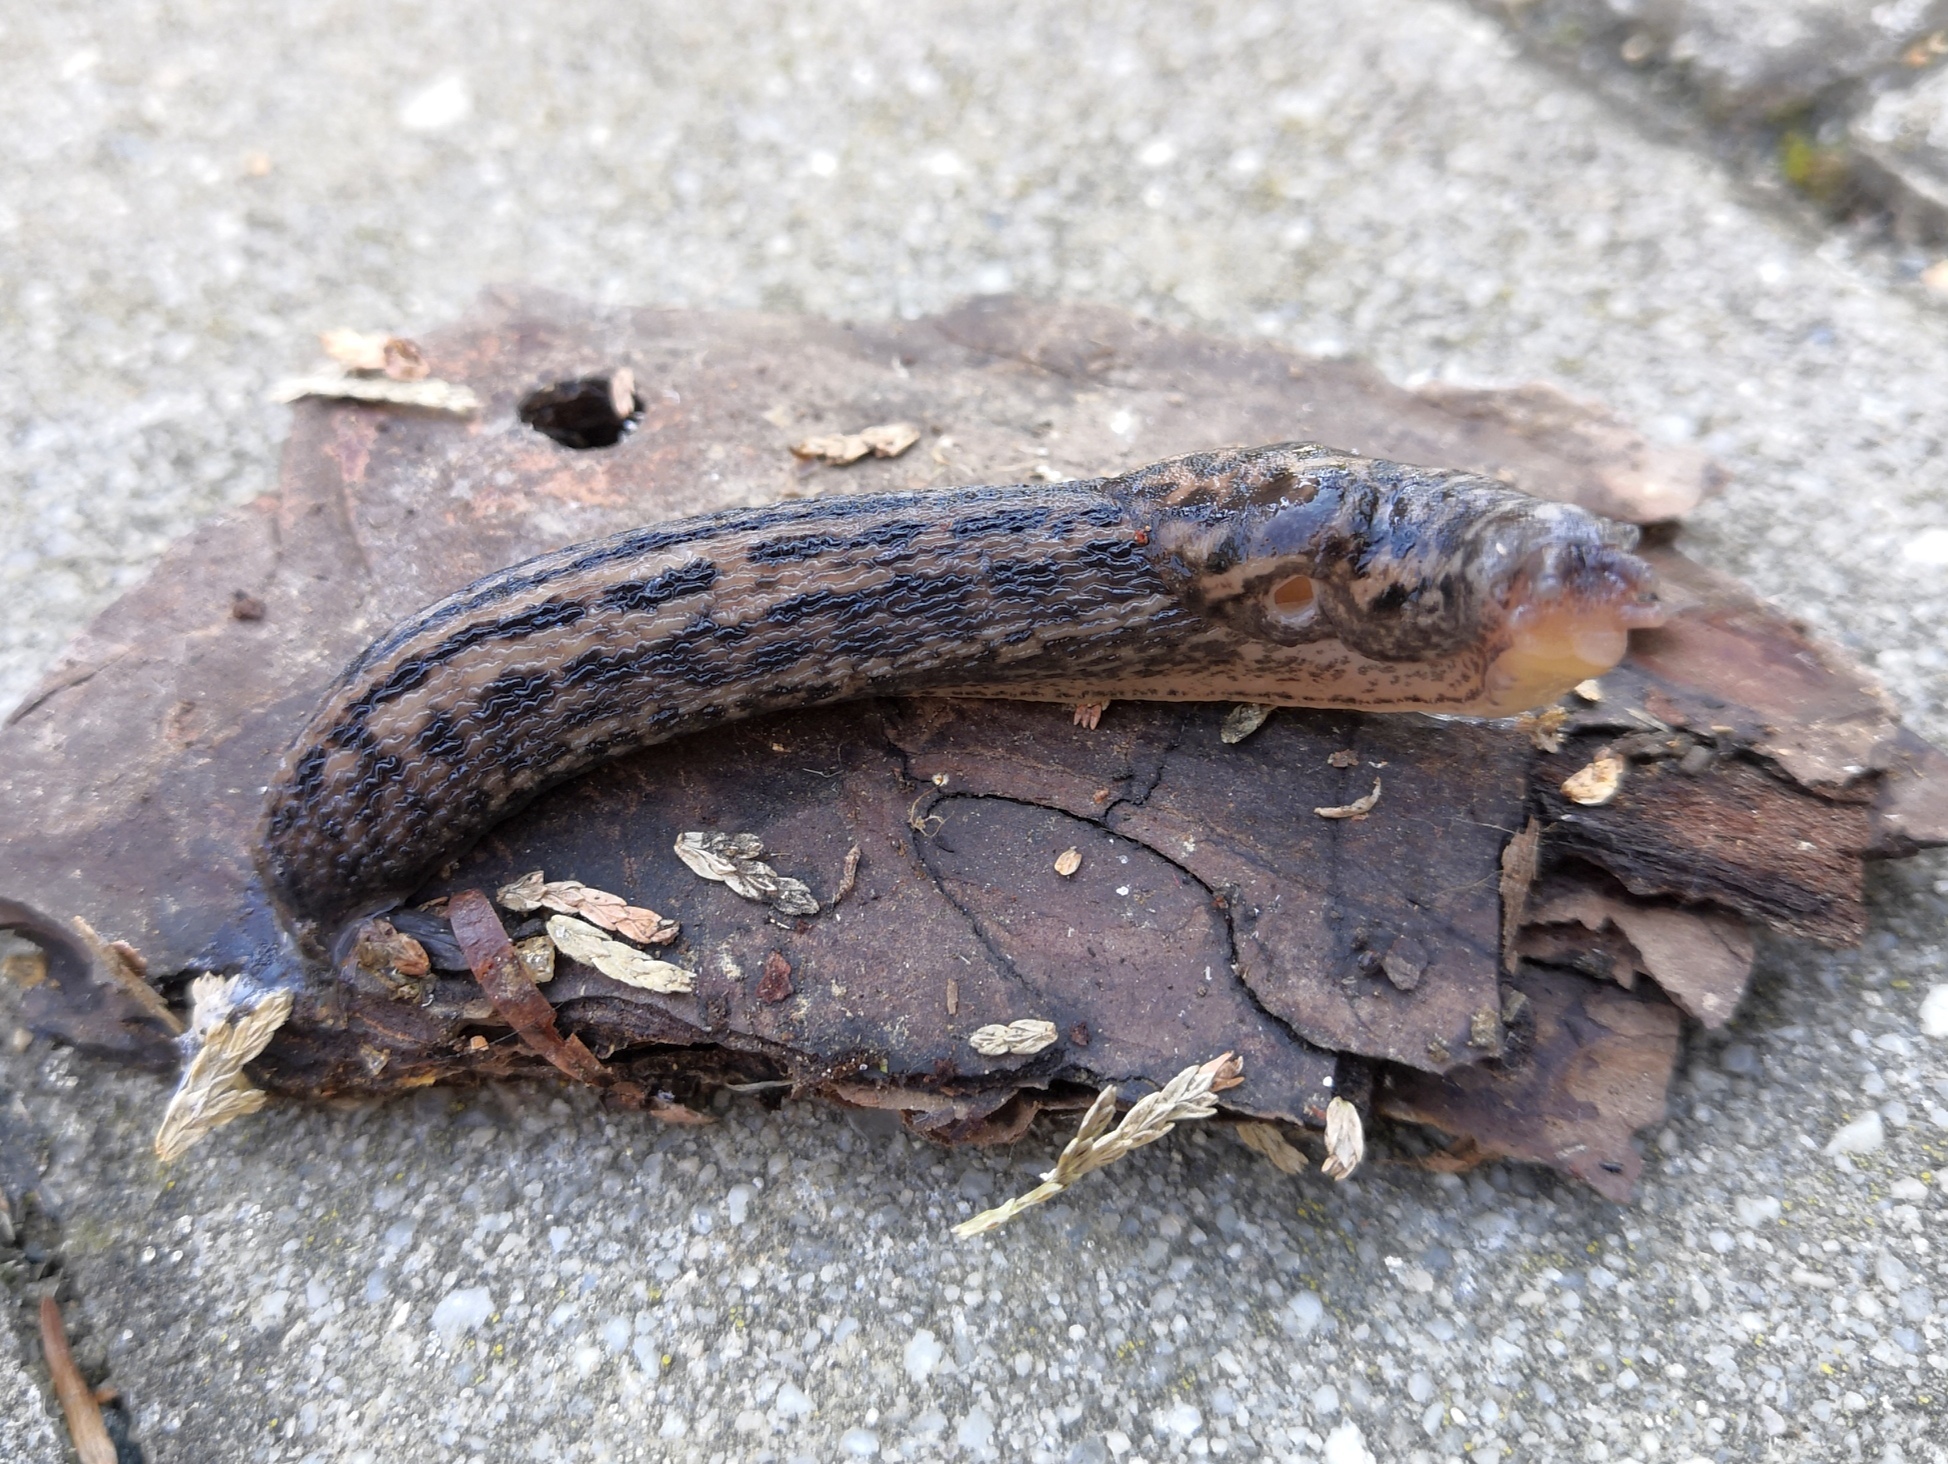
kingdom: Animalia
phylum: Mollusca
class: Gastropoda
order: Stylommatophora
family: Limacidae
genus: Limax
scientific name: Limax maximus
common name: Great grey slug
